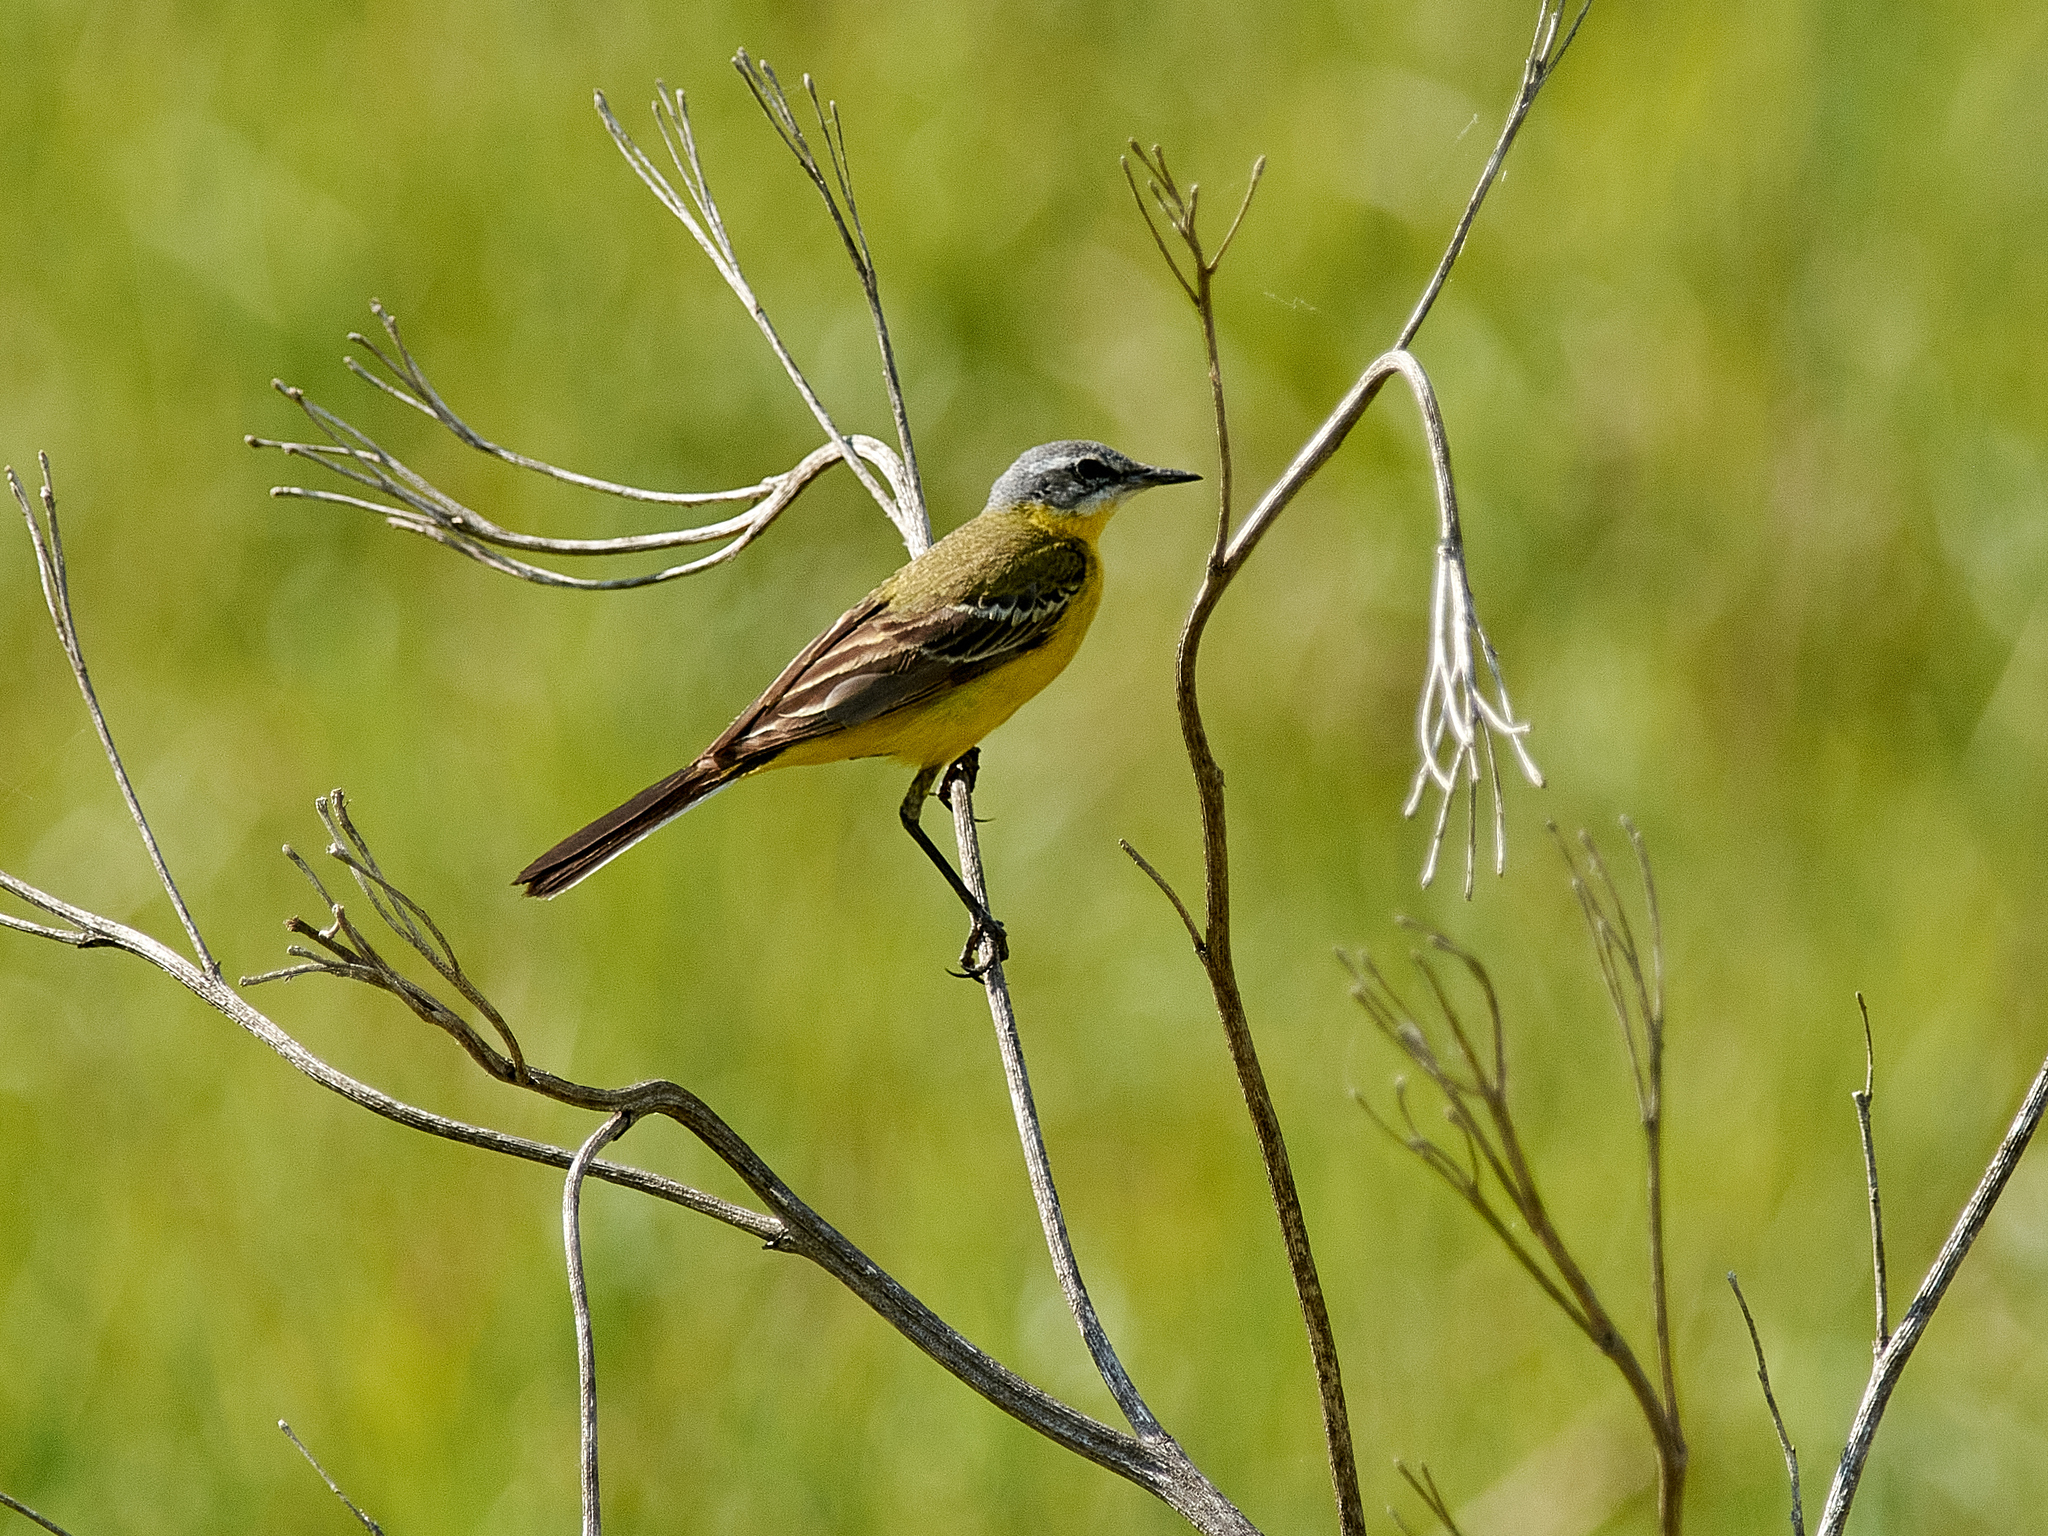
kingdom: Animalia
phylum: Chordata
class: Aves
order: Passeriformes
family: Motacillidae
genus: Motacilla
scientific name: Motacilla flava
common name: Western yellow wagtail
